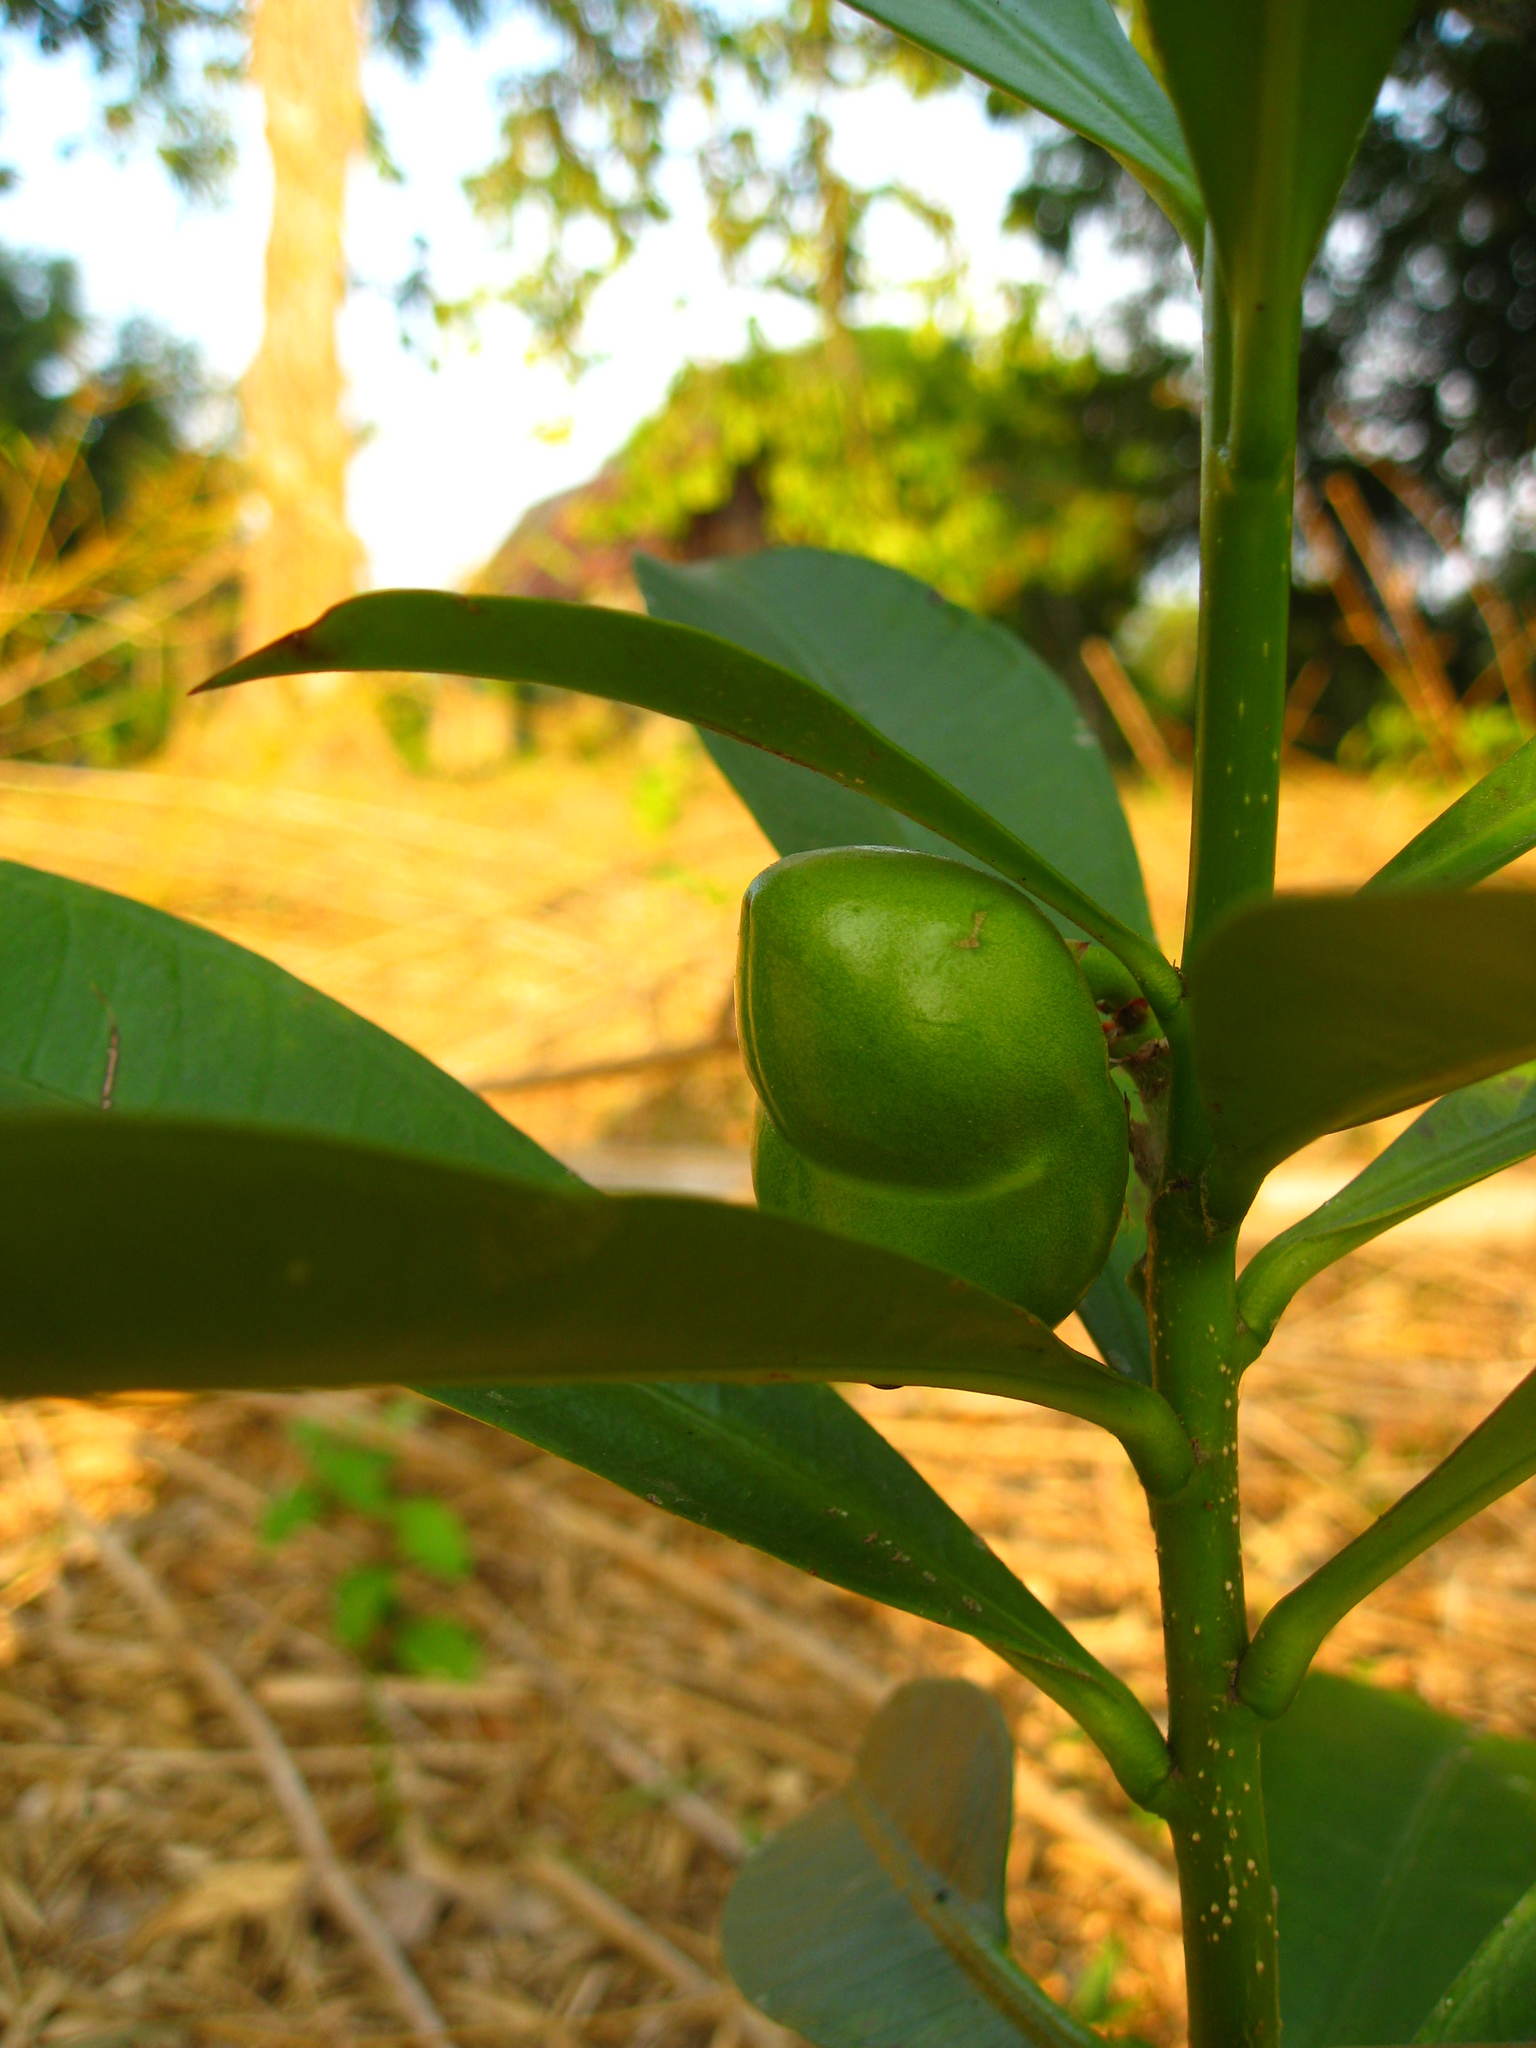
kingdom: Plantae
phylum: Tracheophyta
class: Magnoliopsida
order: Gentianales
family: Apocynaceae
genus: Thevetia
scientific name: Thevetia ahouai
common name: Broadleaf thevetia
